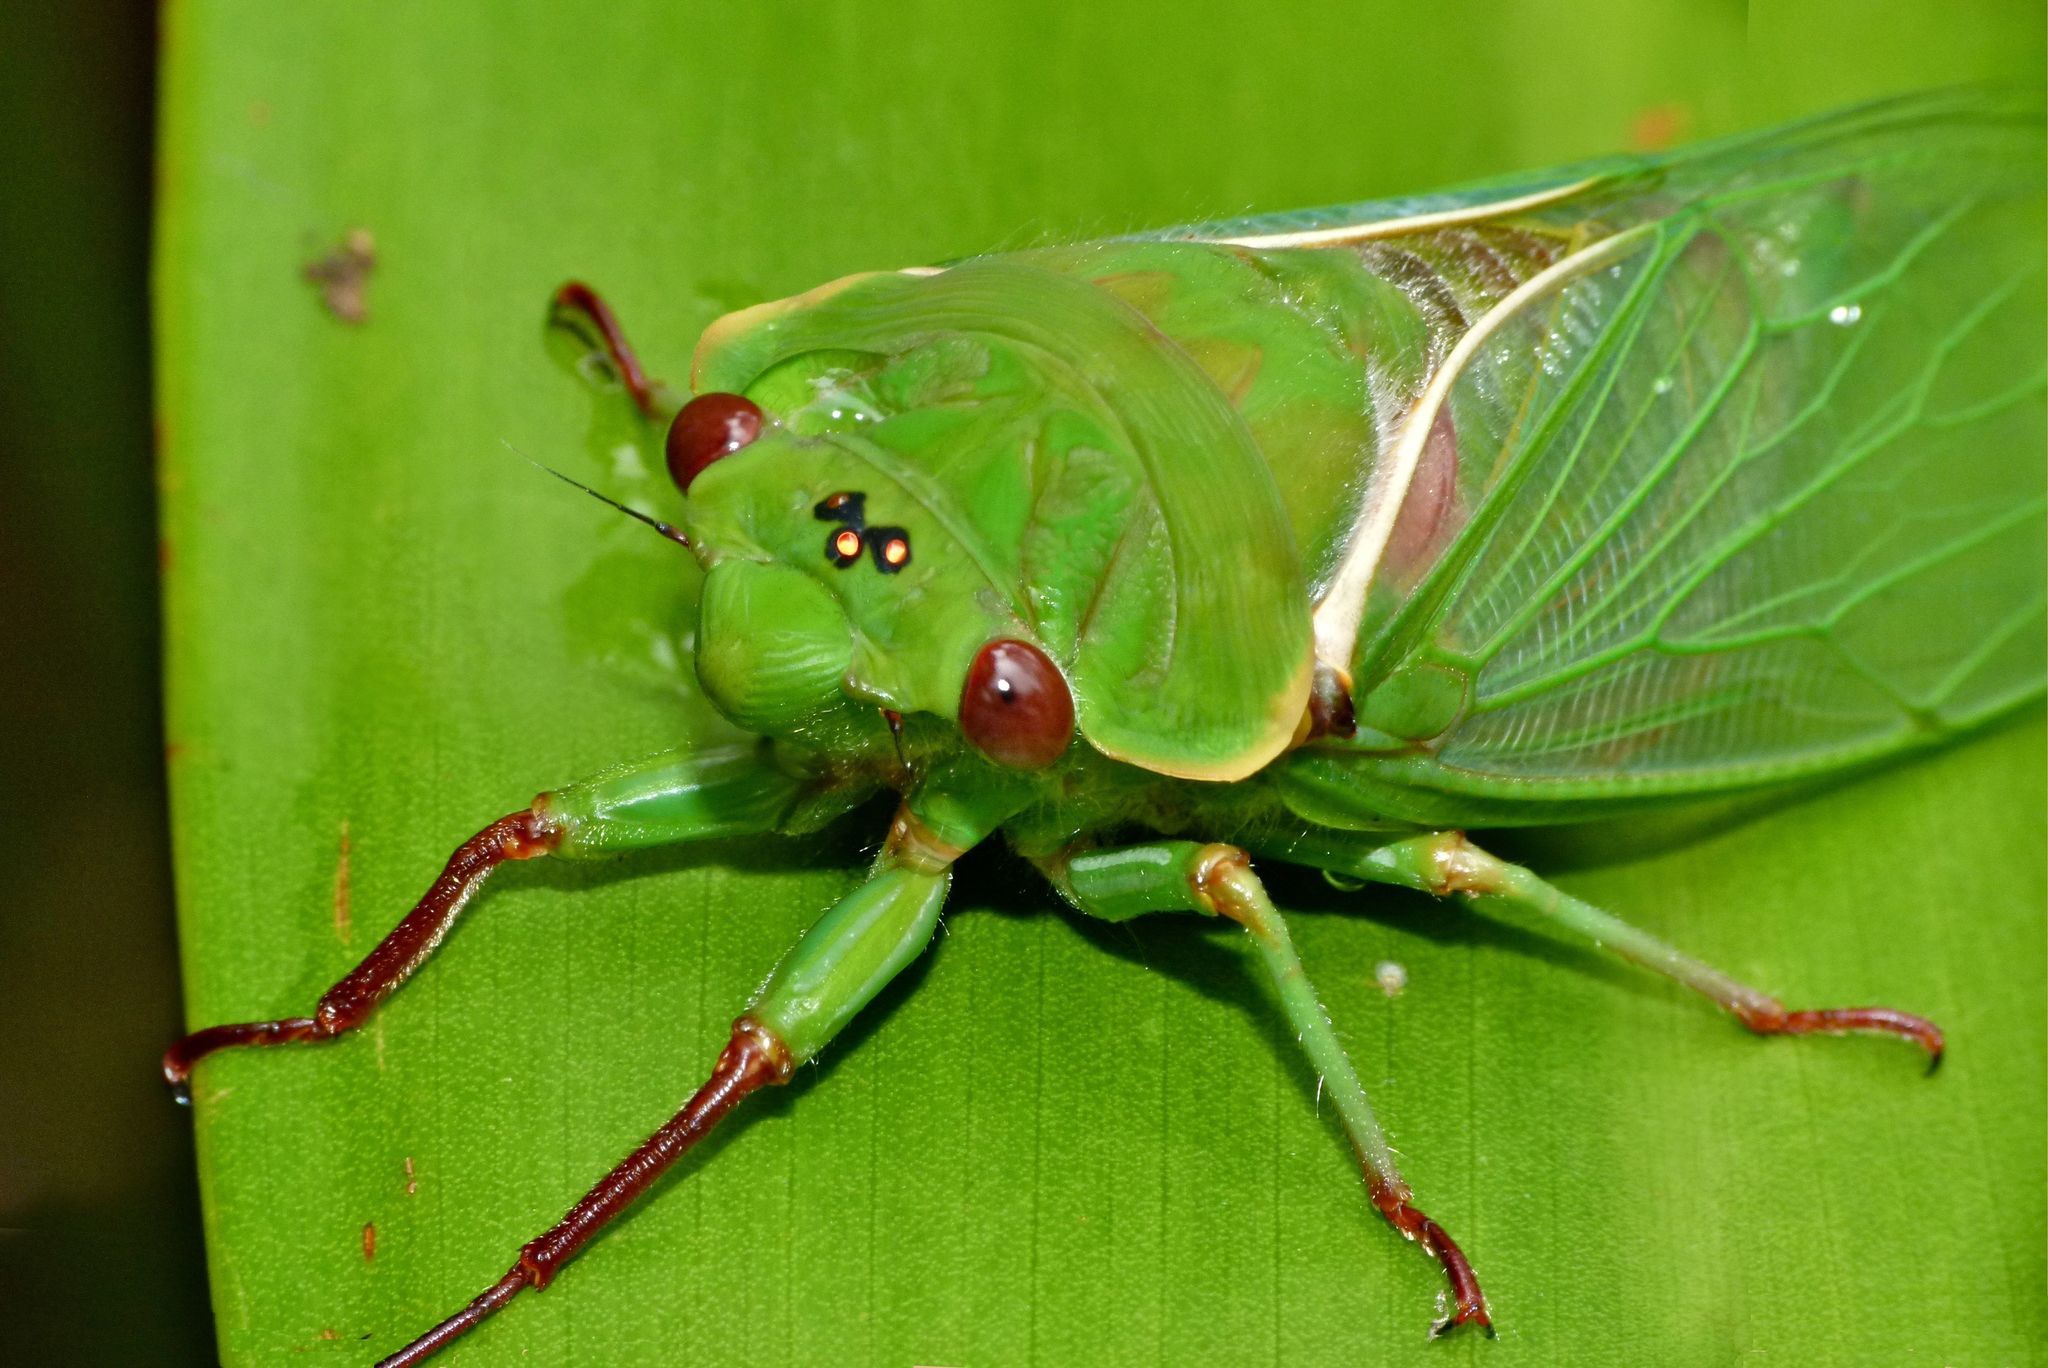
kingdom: Animalia
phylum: Arthropoda
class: Insecta
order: Hemiptera
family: Cicadidae
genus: Cyclochila
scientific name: Cyclochila australasiae
